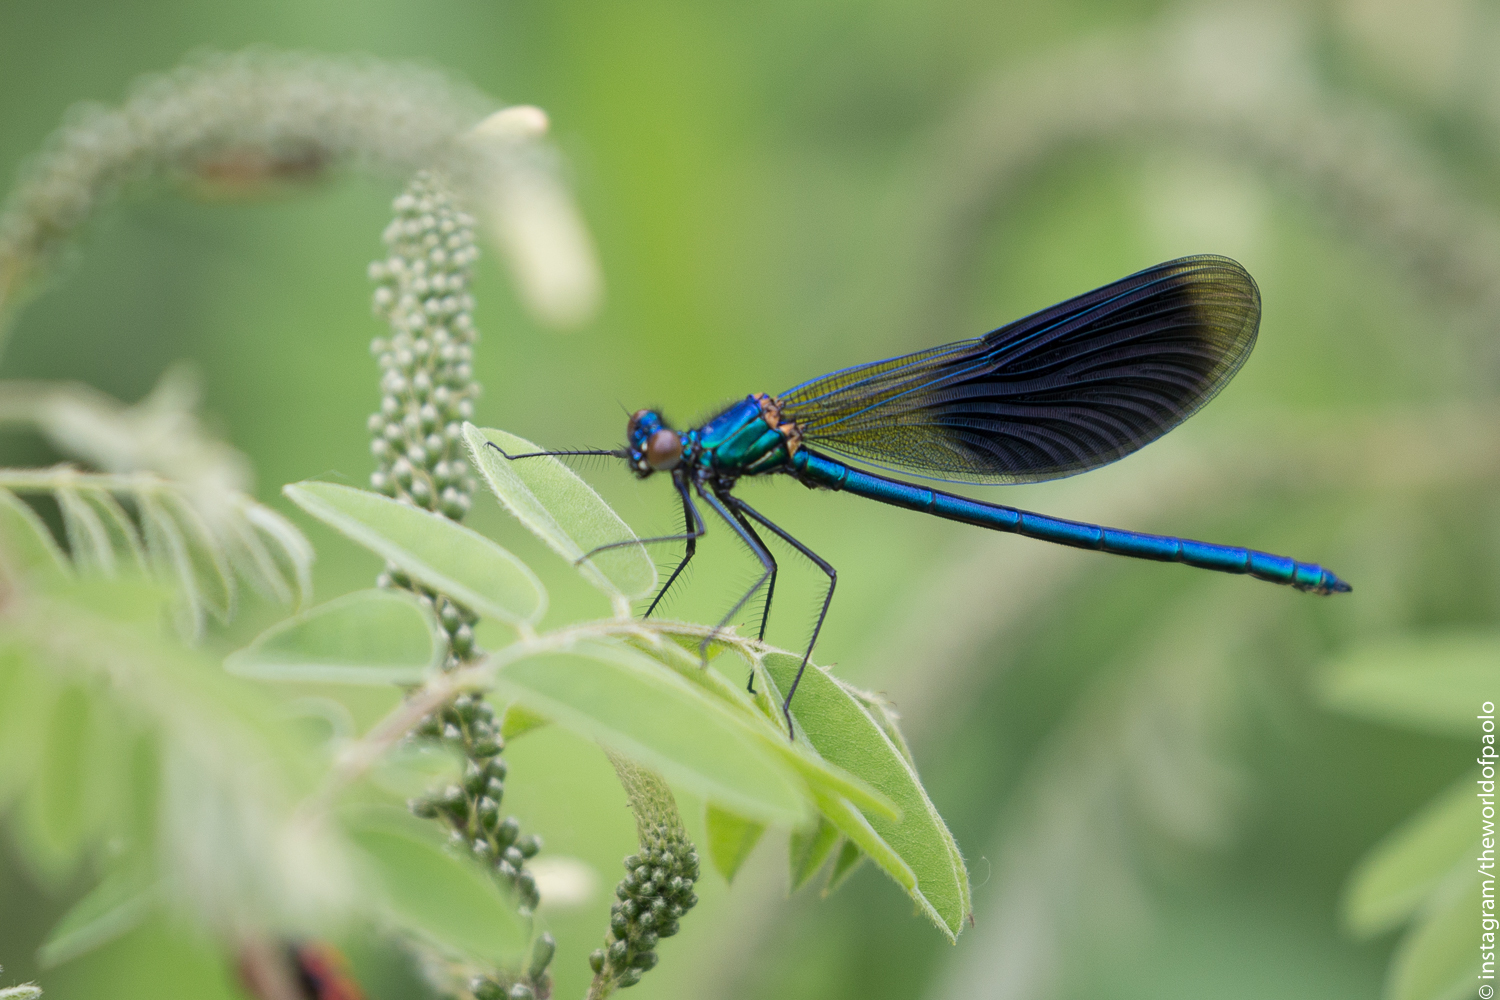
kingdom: Animalia
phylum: Arthropoda
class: Insecta
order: Odonata
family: Calopterygidae
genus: Calopteryx
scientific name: Calopteryx splendens
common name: Banded demoiselle
